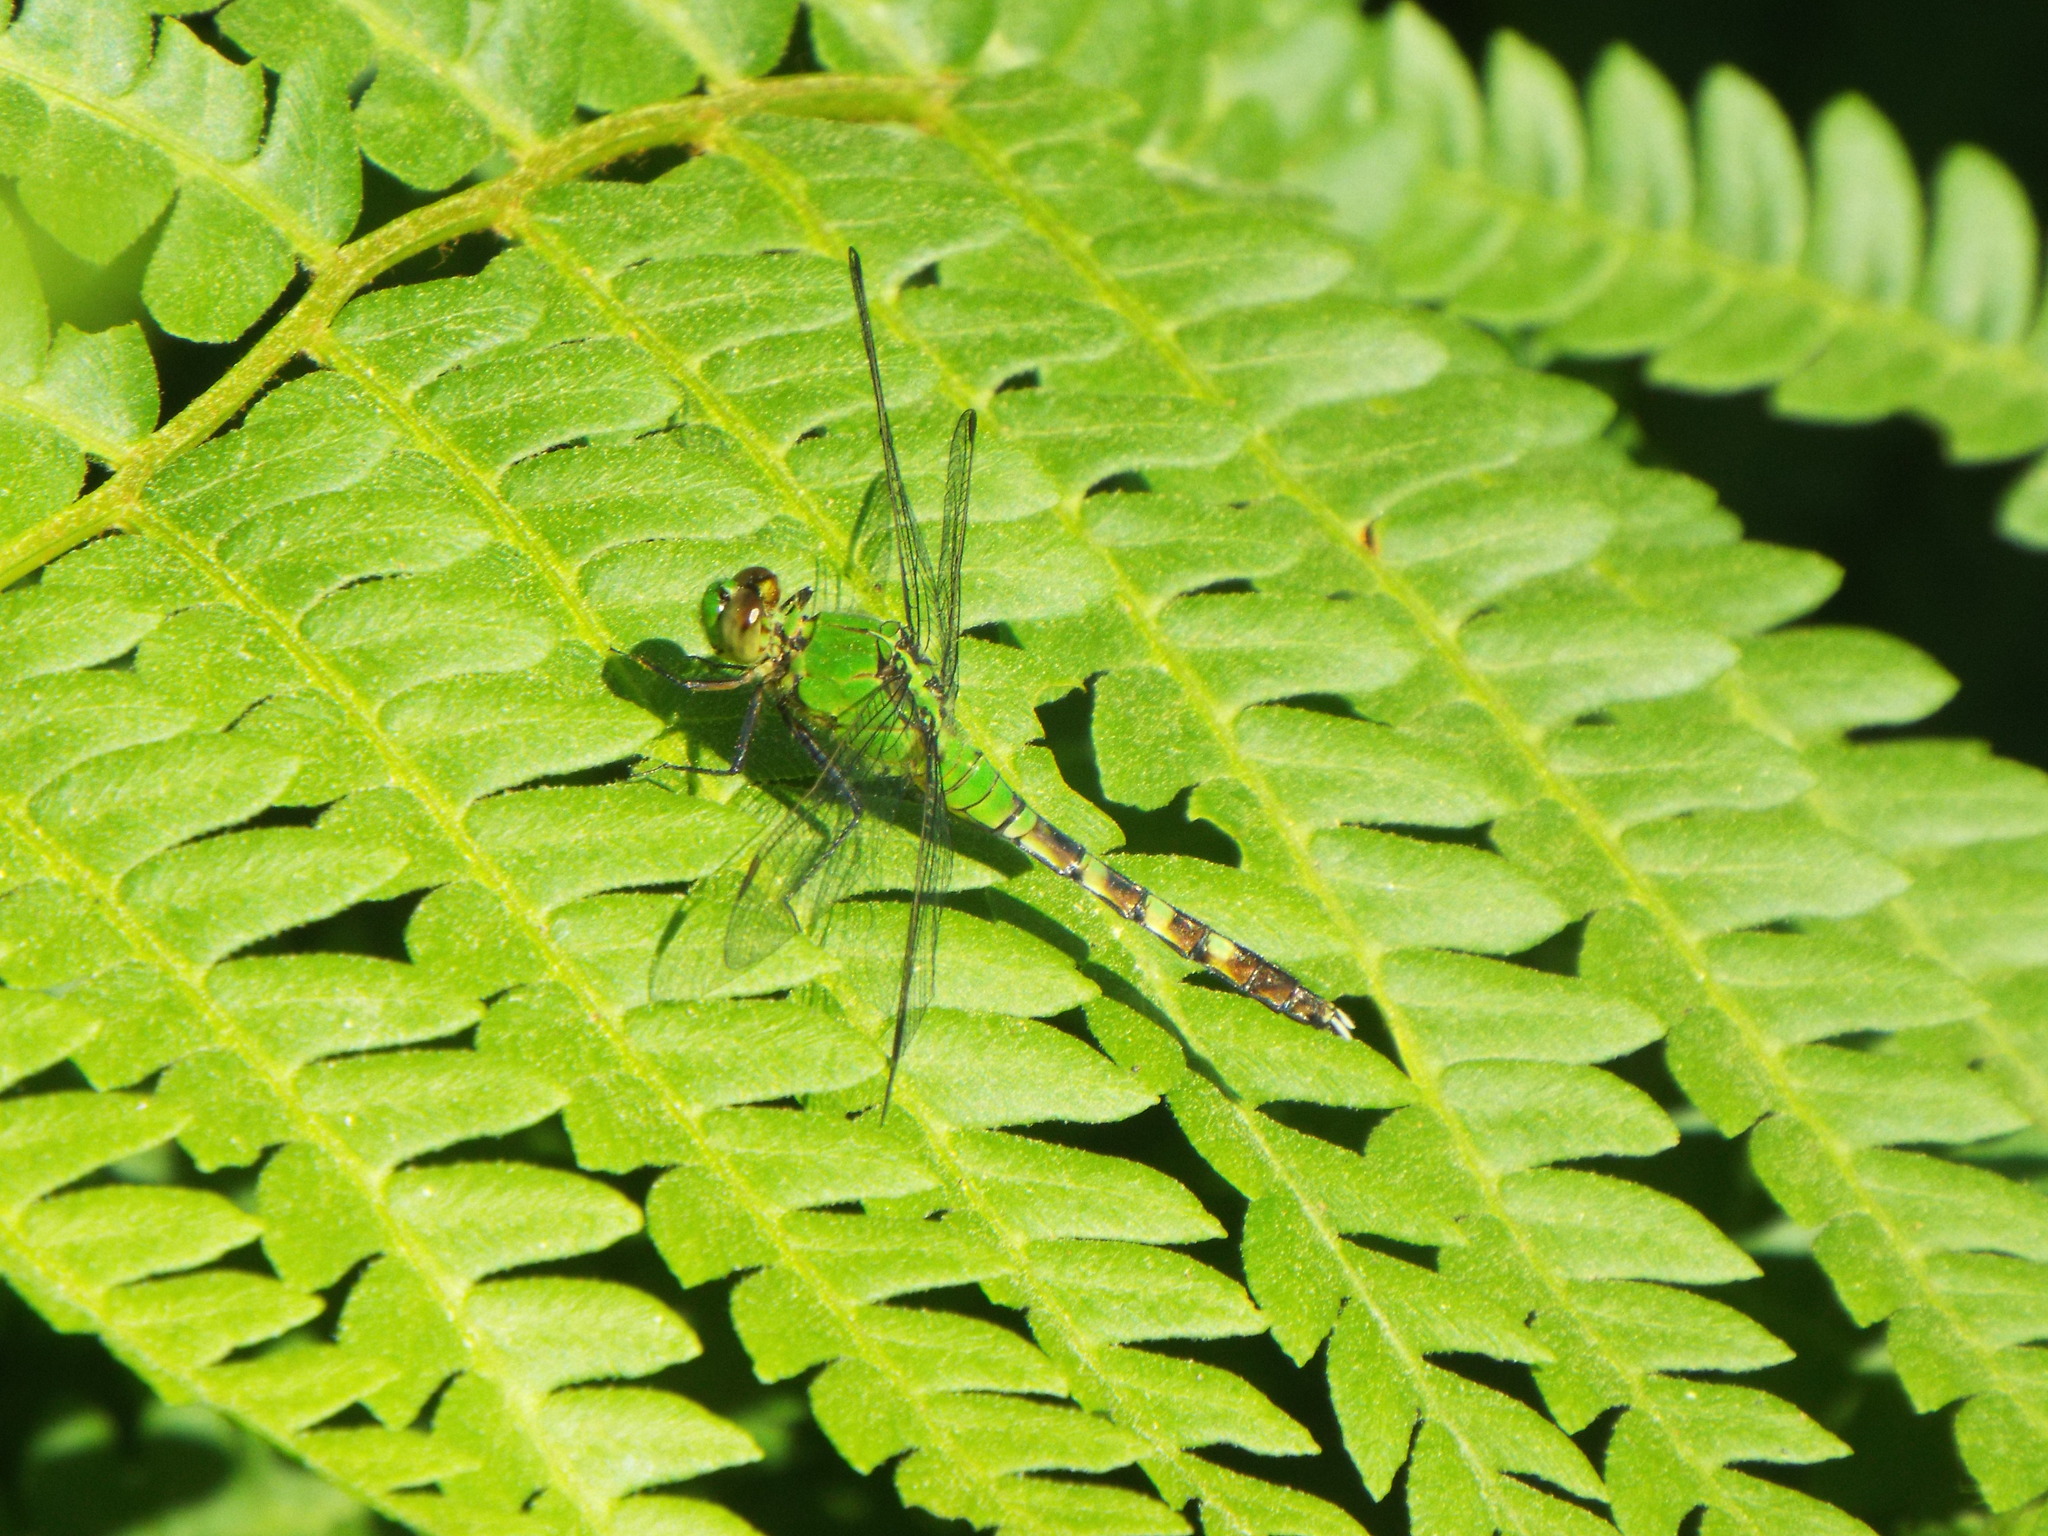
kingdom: Animalia
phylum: Arthropoda
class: Insecta
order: Odonata
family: Libellulidae
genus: Erythemis
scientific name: Erythemis simplicicollis
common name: Eastern pondhawk
